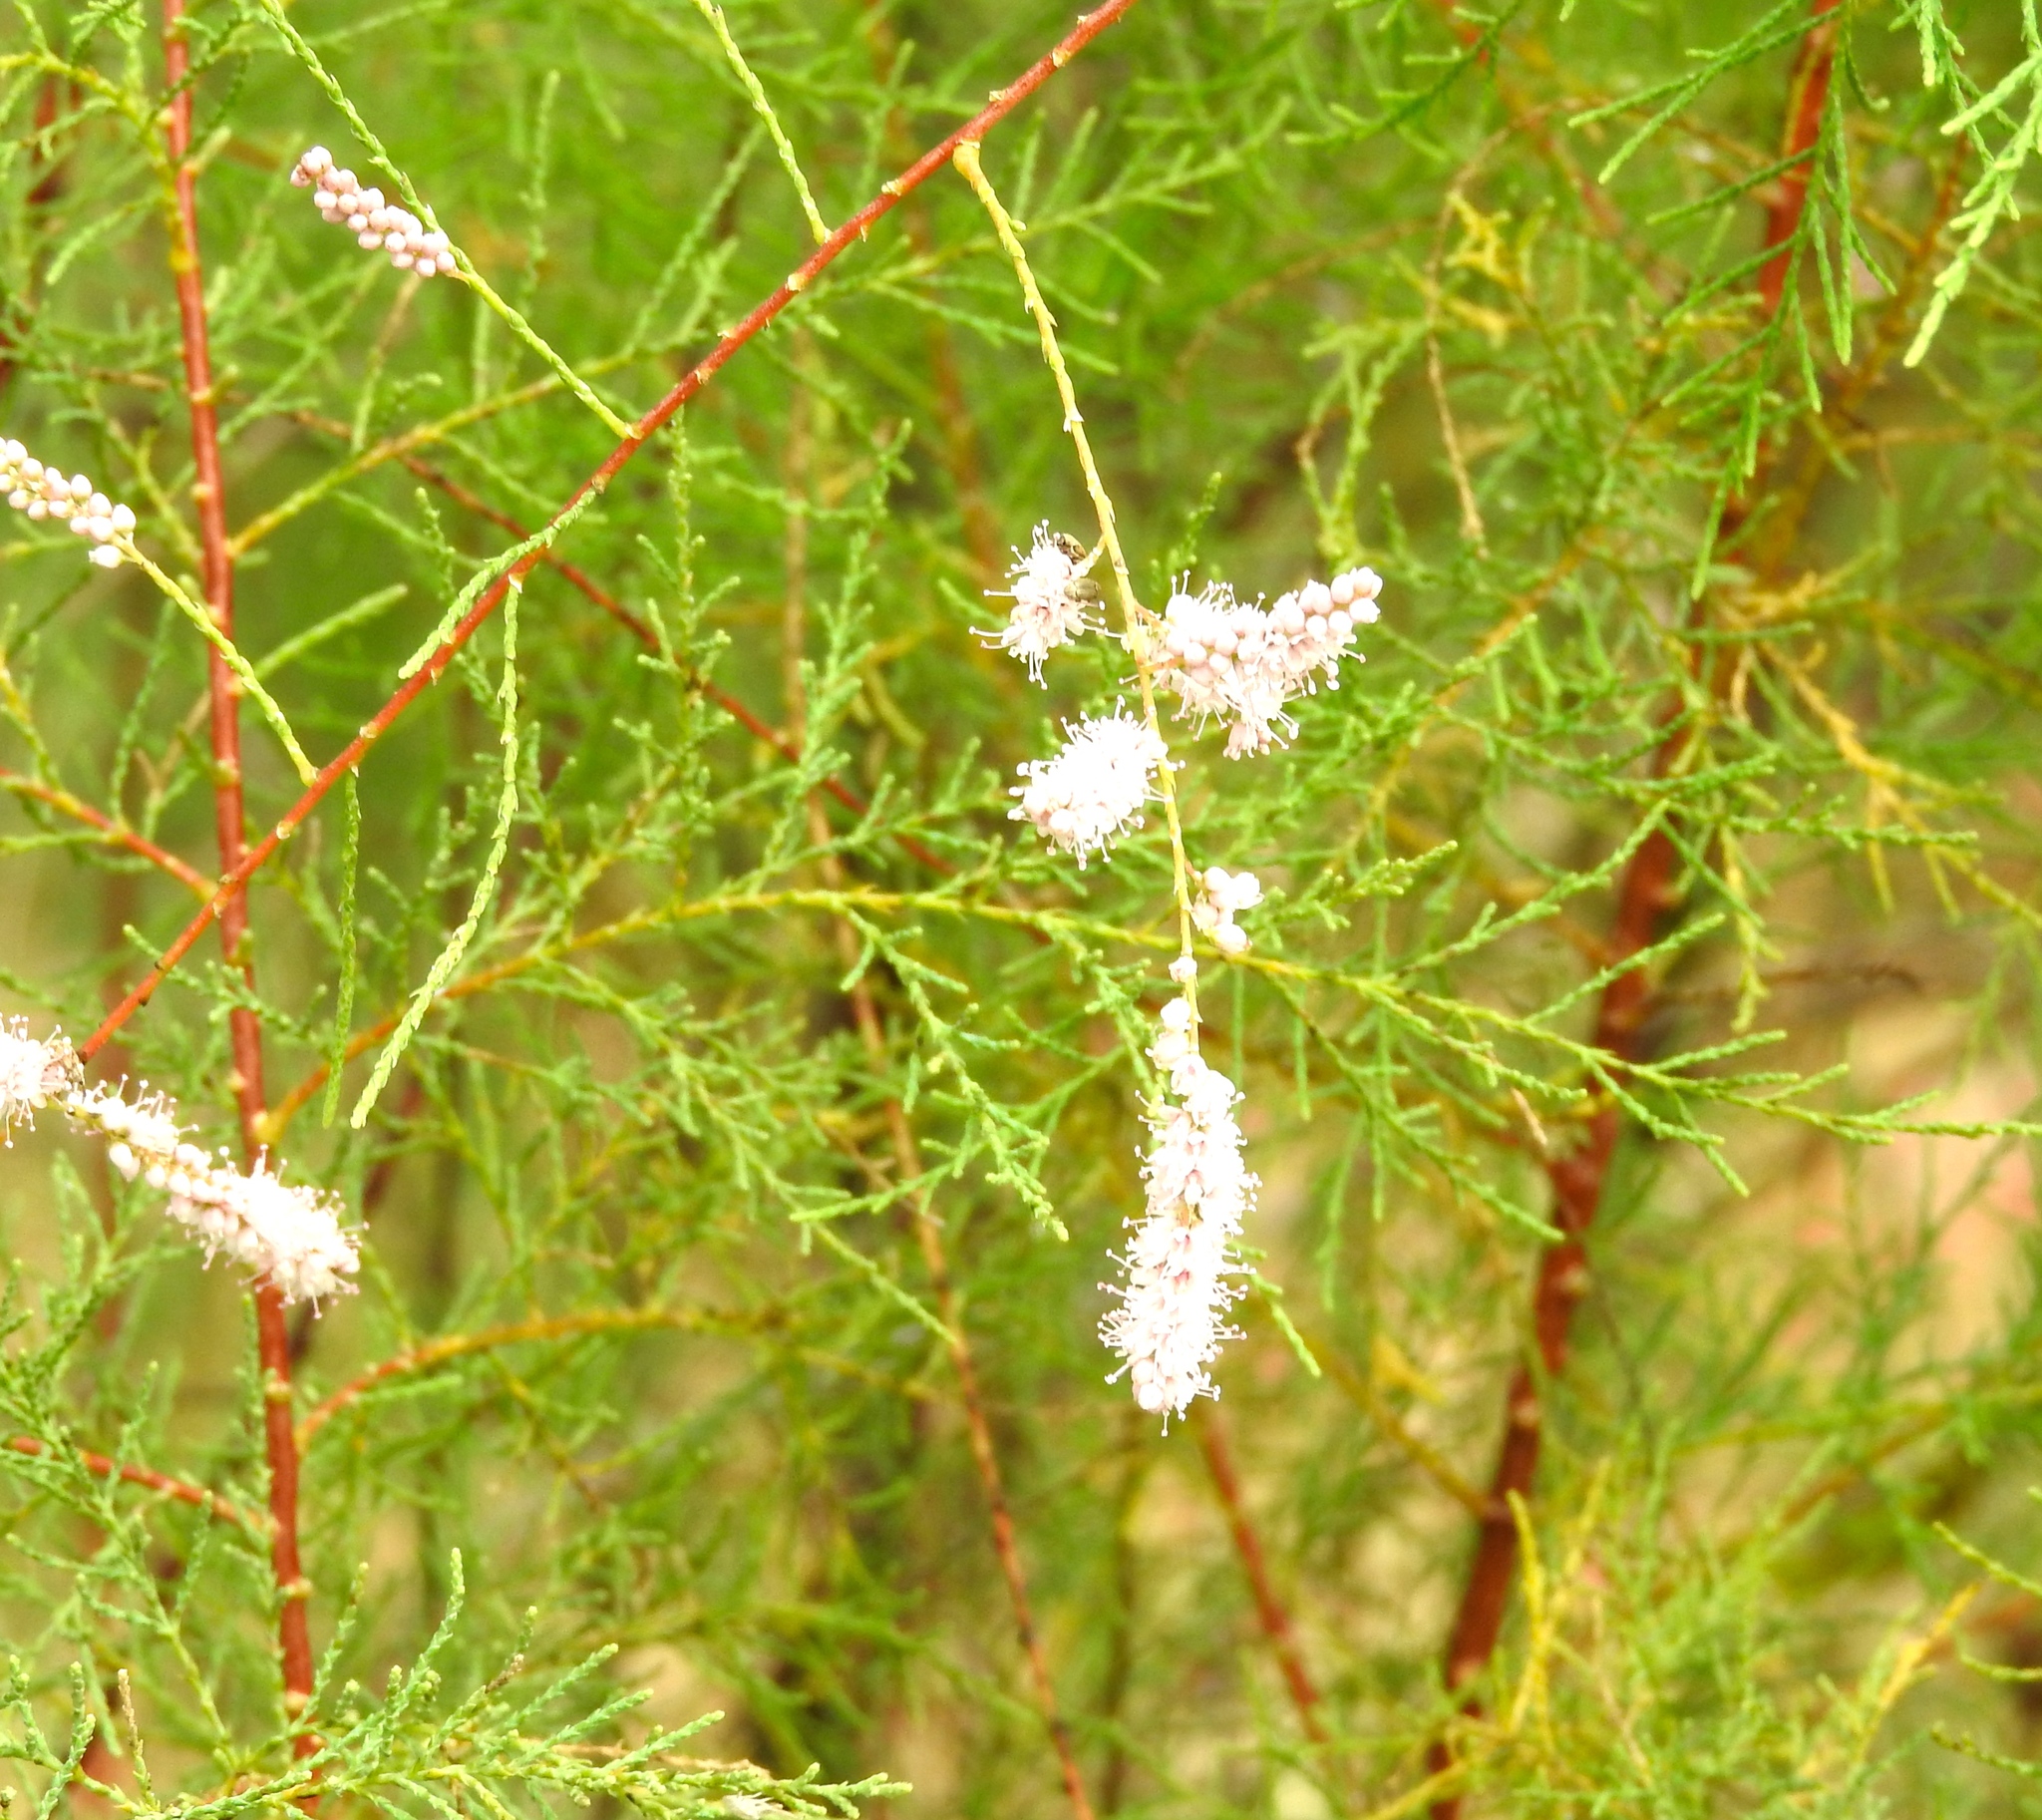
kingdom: Plantae
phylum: Tracheophyta
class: Magnoliopsida
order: Caryophyllales
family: Tamaricaceae
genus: Tamarix
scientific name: Tamarix ramosissima
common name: Pink tamarisk
